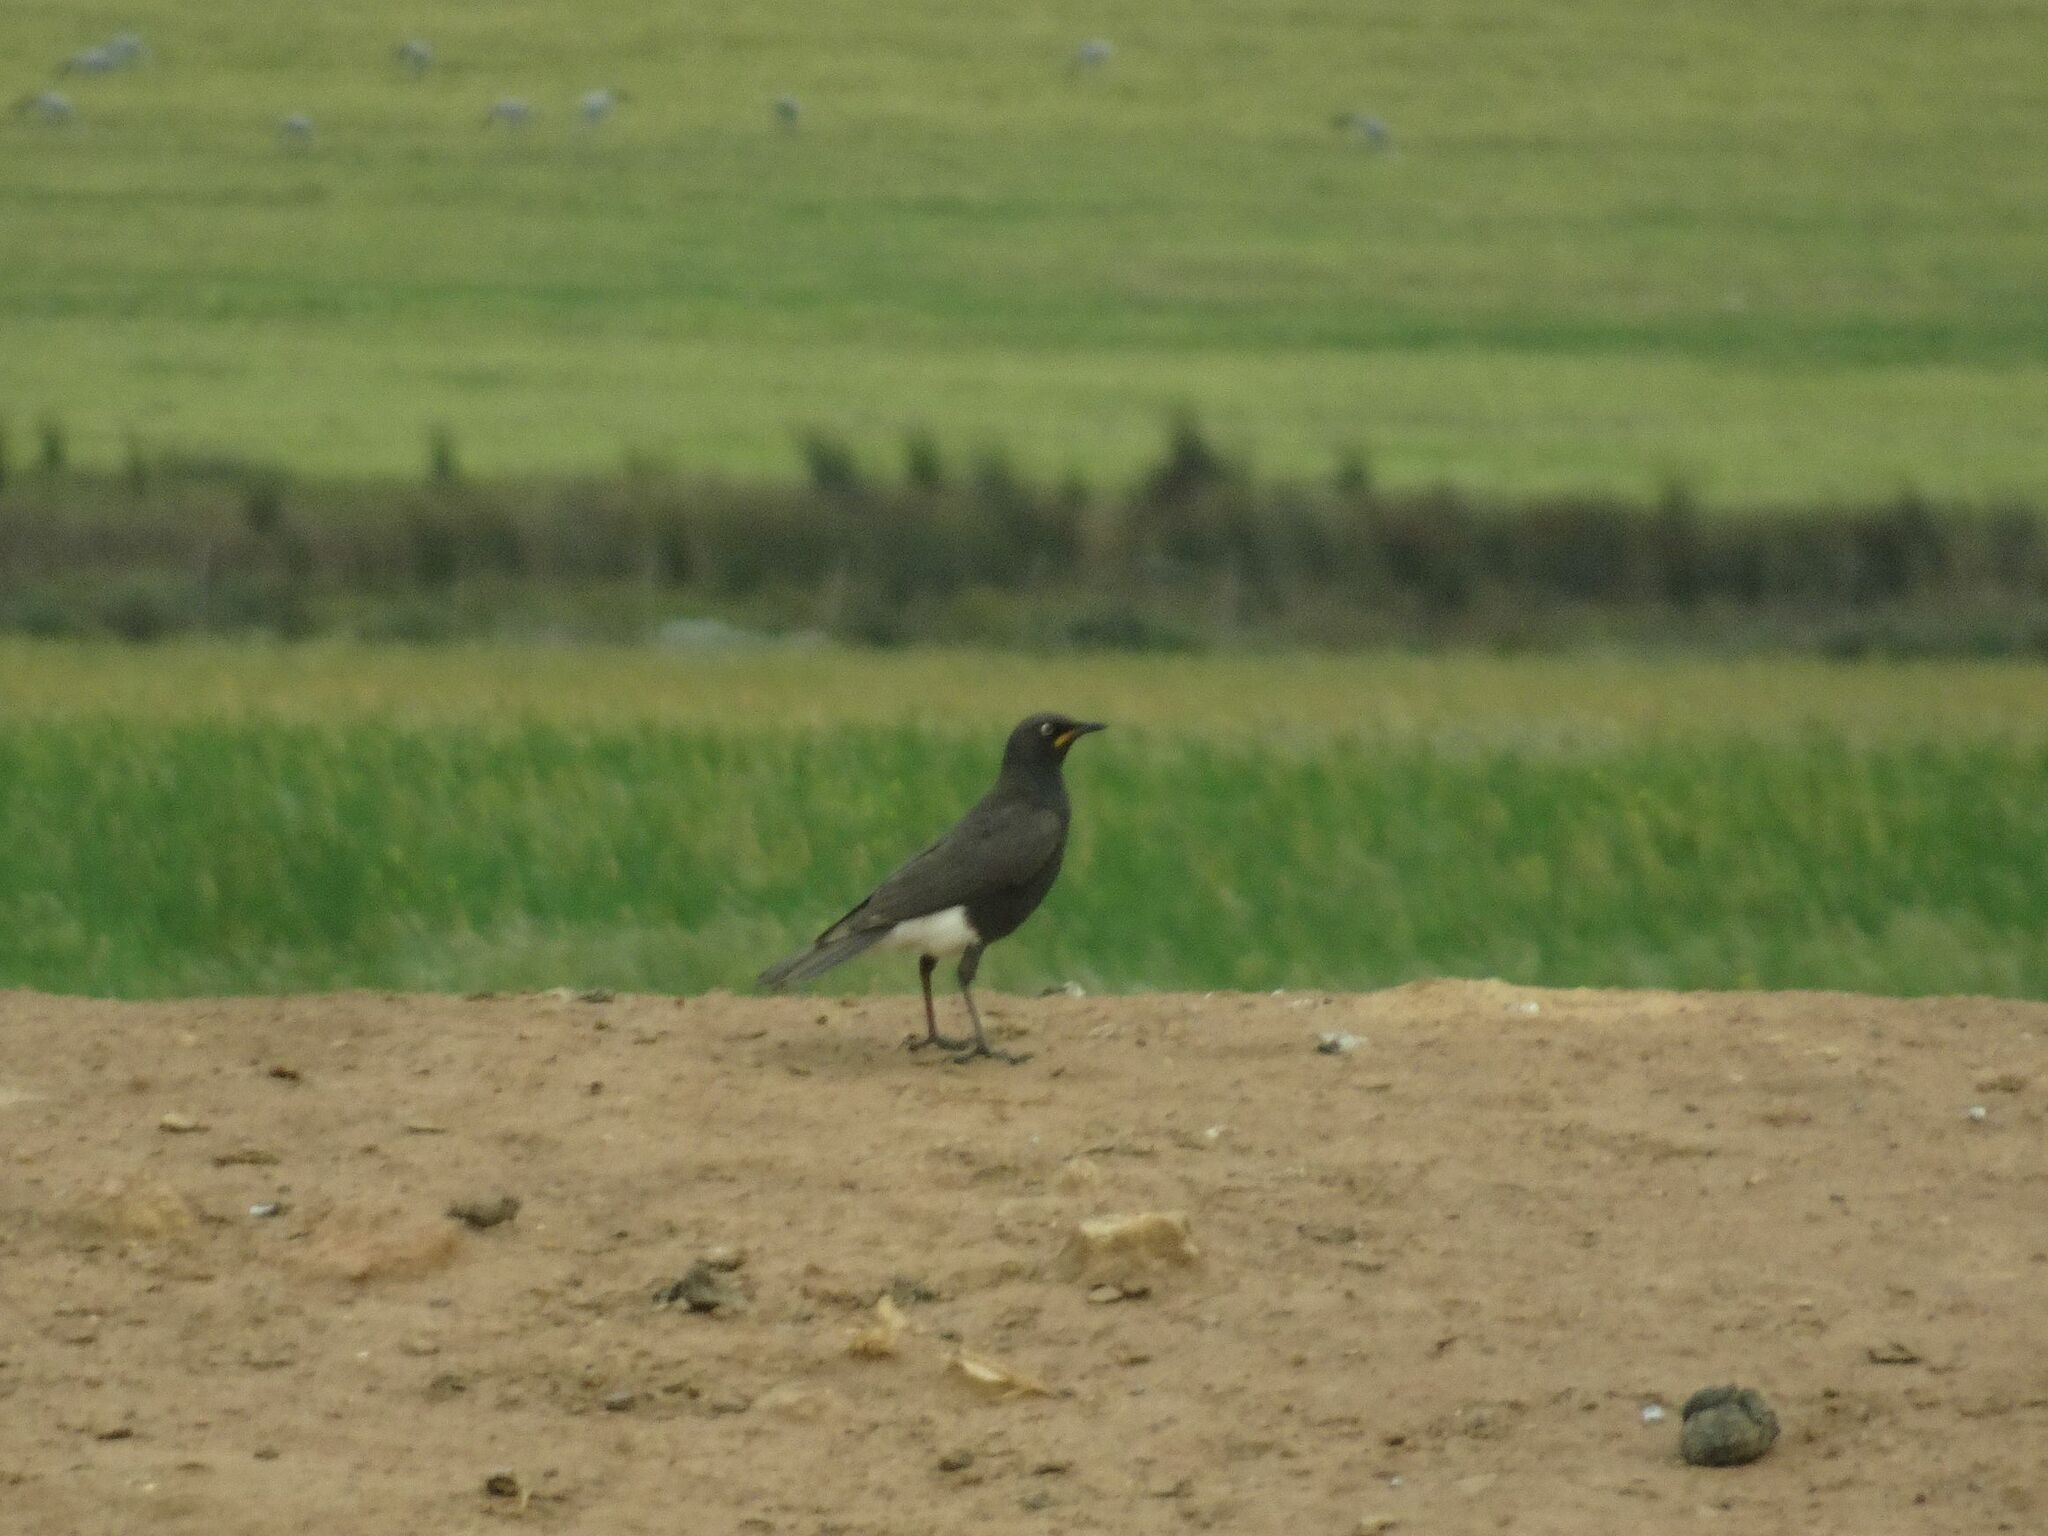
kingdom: Animalia
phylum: Chordata
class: Aves
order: Passeriformes
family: Sturnidae
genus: Lamprotornis
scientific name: Lamprotornis bicolor
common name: Pied starling
